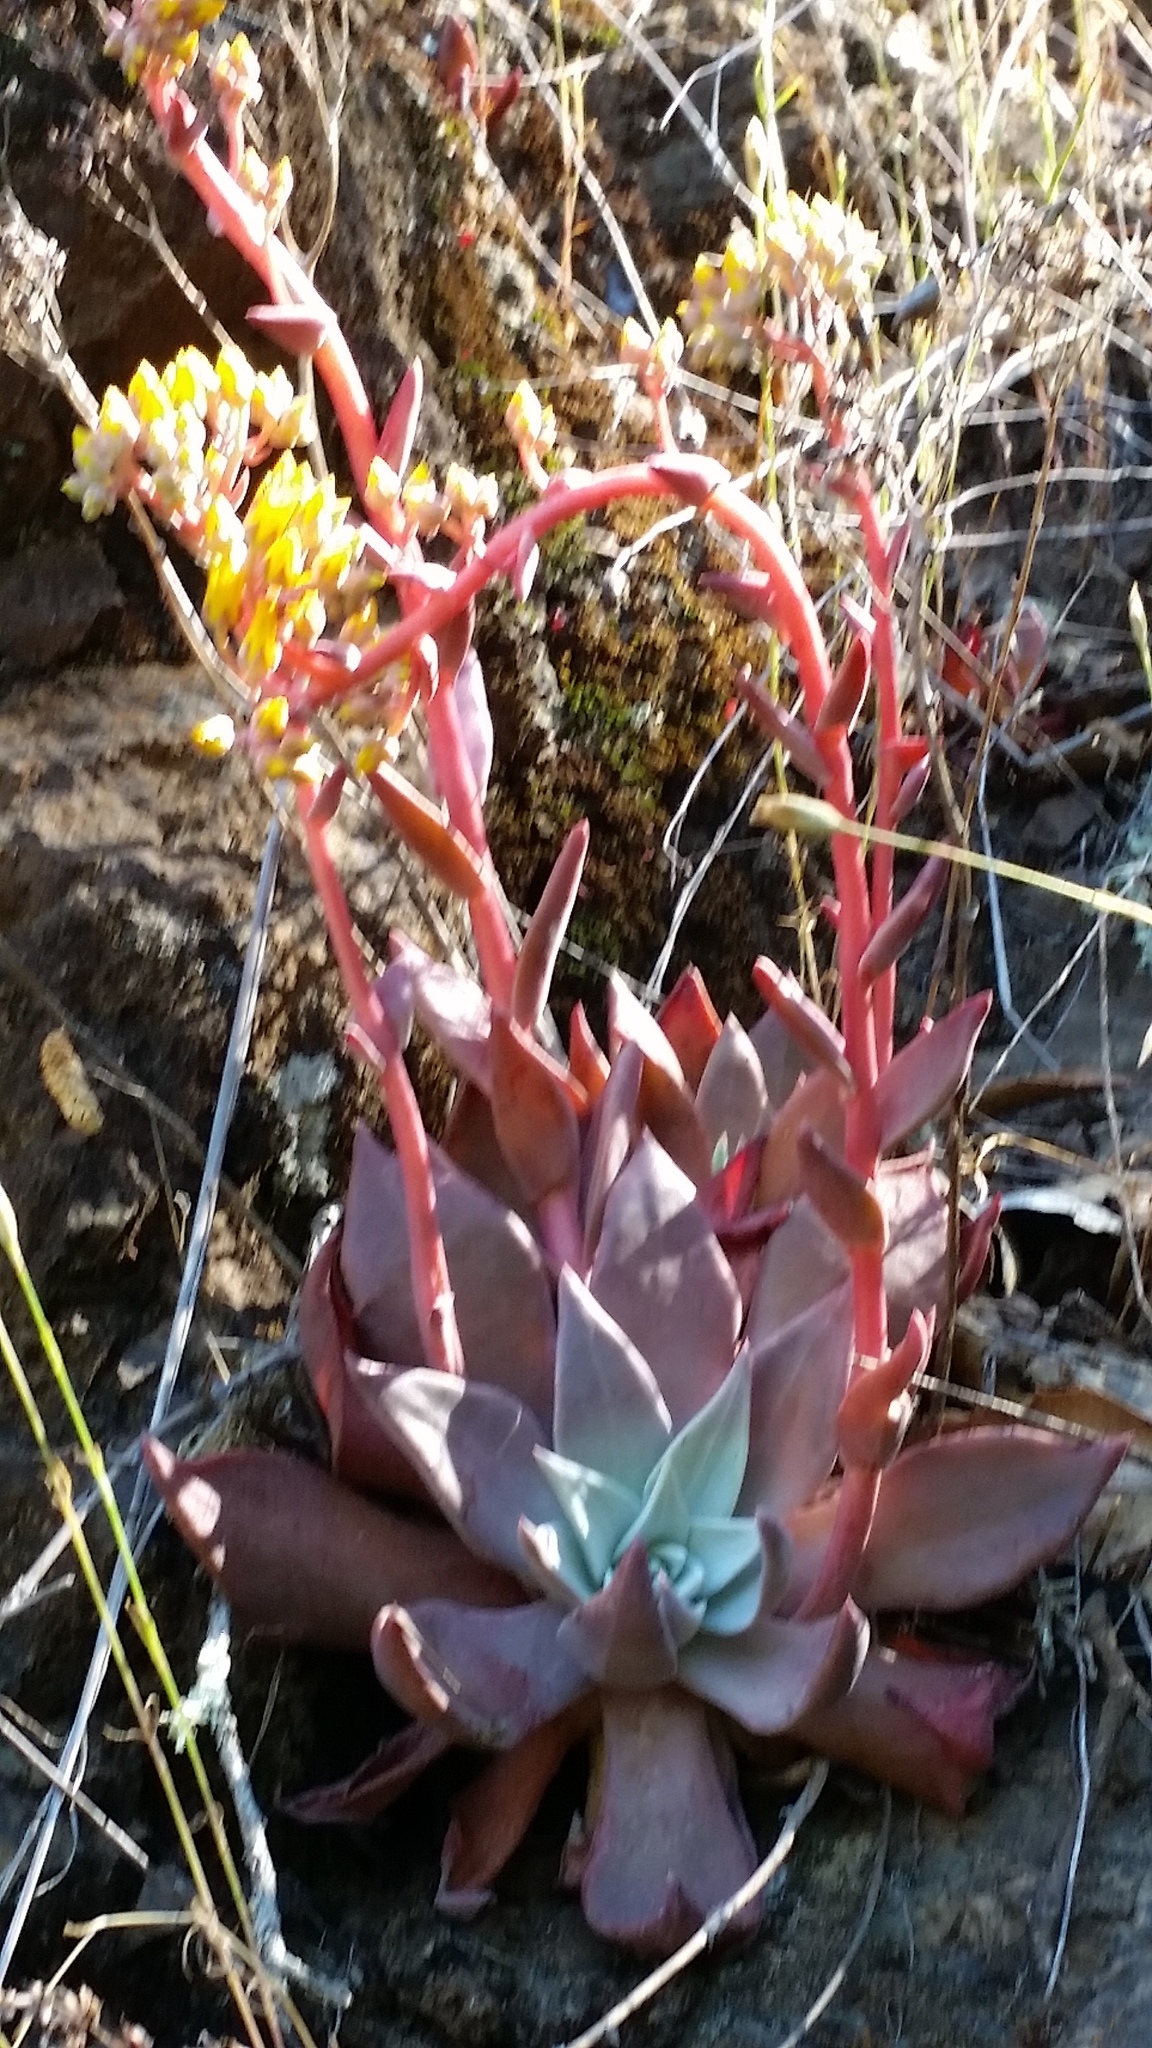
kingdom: Plantae
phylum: Tracheophyta
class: Magnoliopsida
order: Saxifragales
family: Crassulaceae
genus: Dudleya
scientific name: Dudleya cymosa
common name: Canyon dudleya
